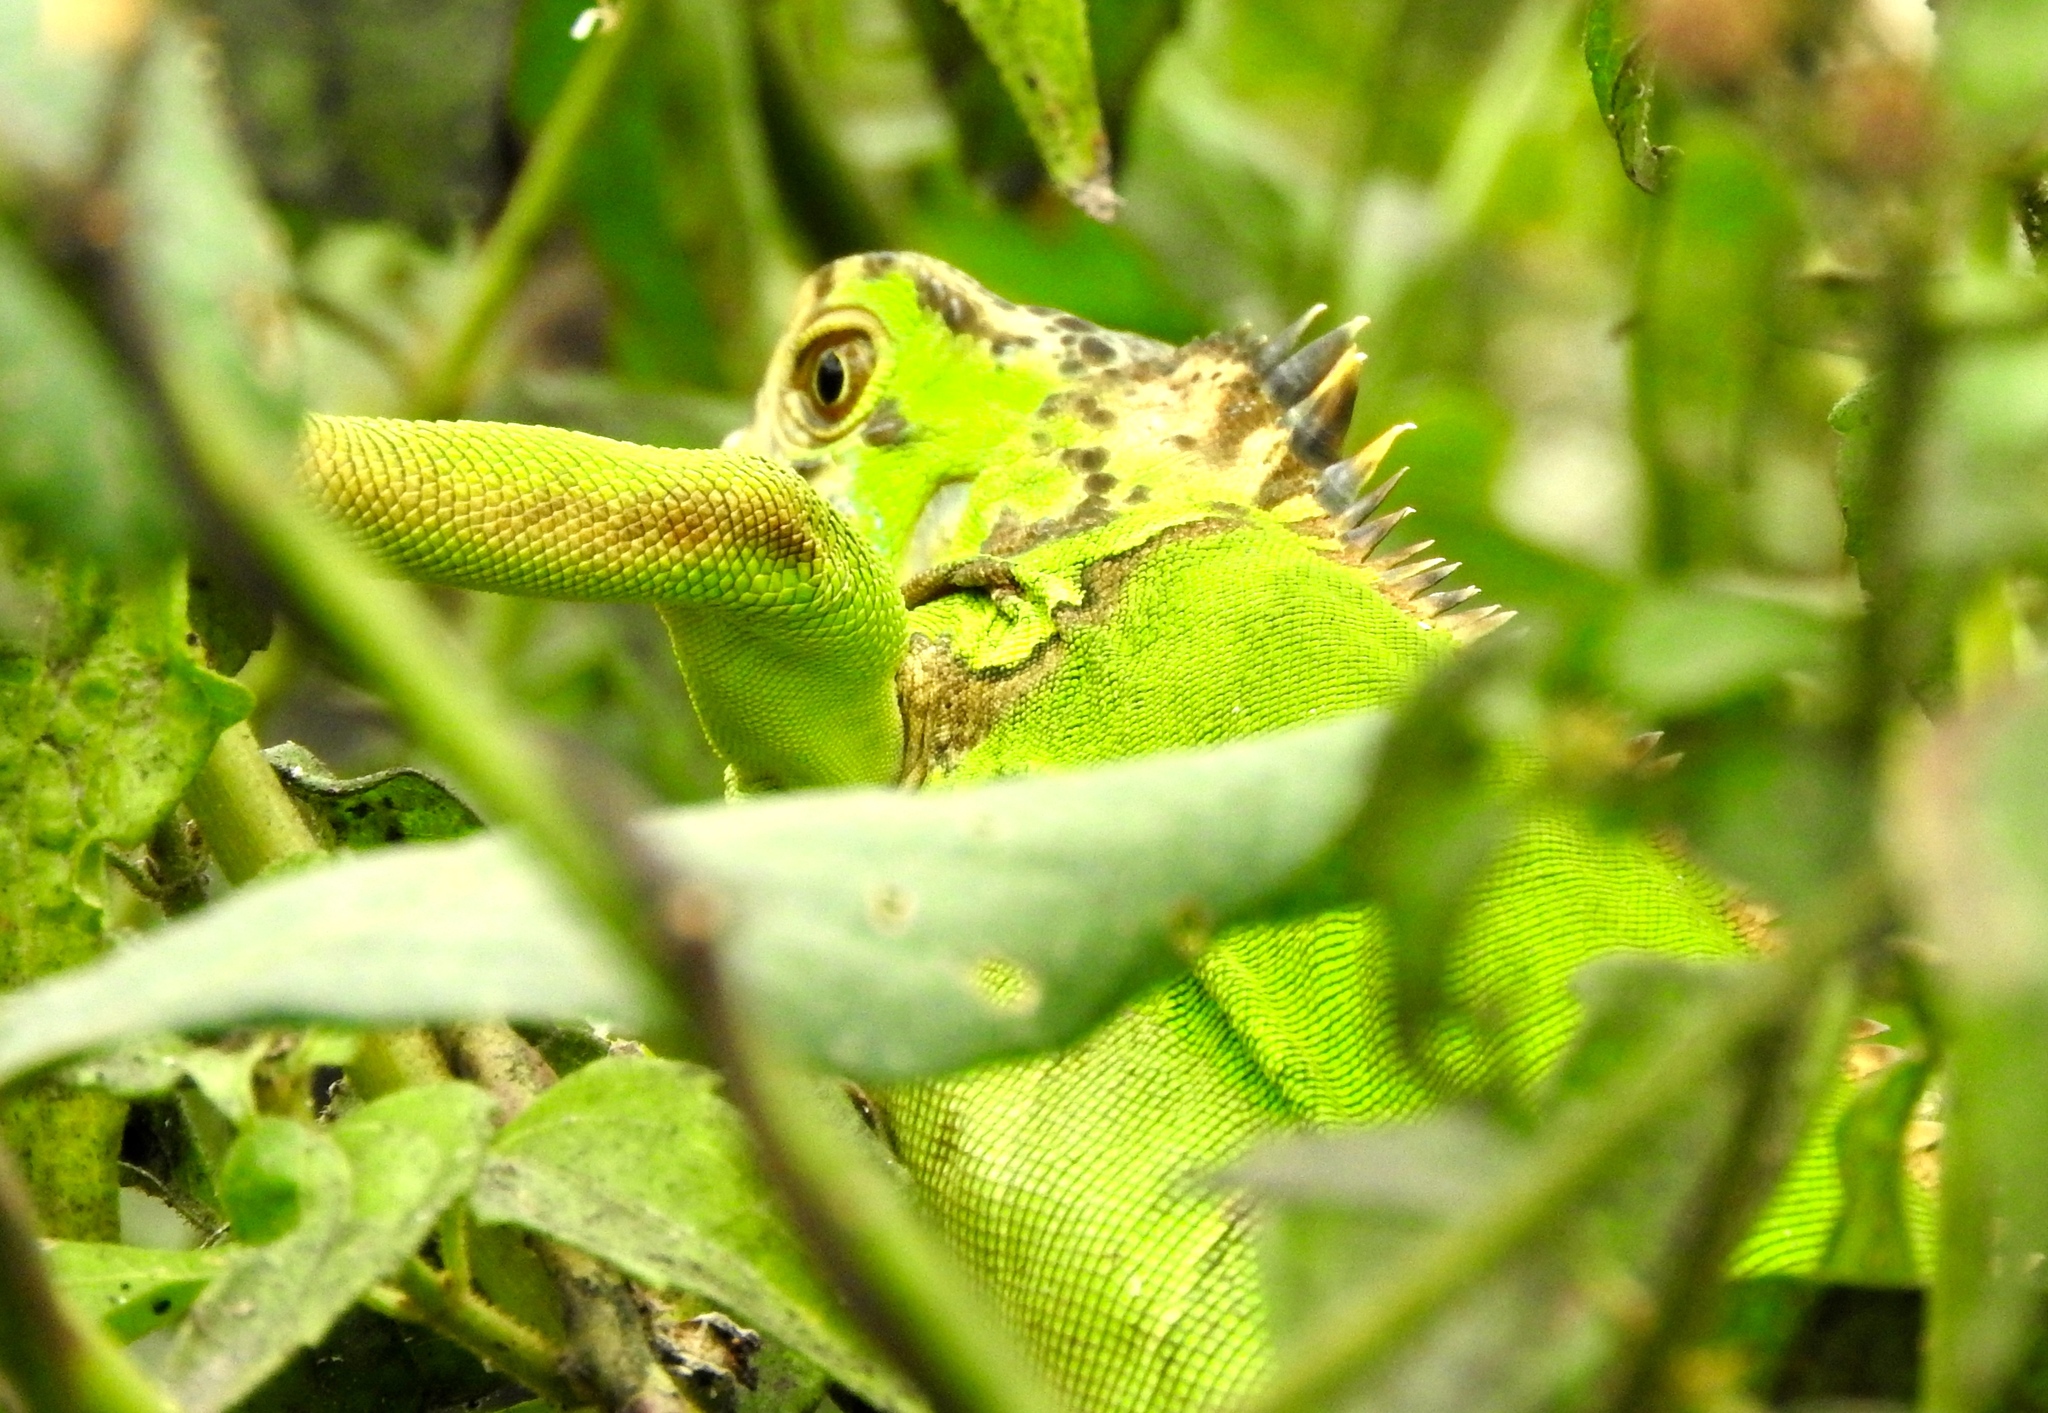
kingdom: Animalia
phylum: Chordata
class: Squamata
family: Iguanidae
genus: Iguana
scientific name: Iguana iguana
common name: Green iguana
